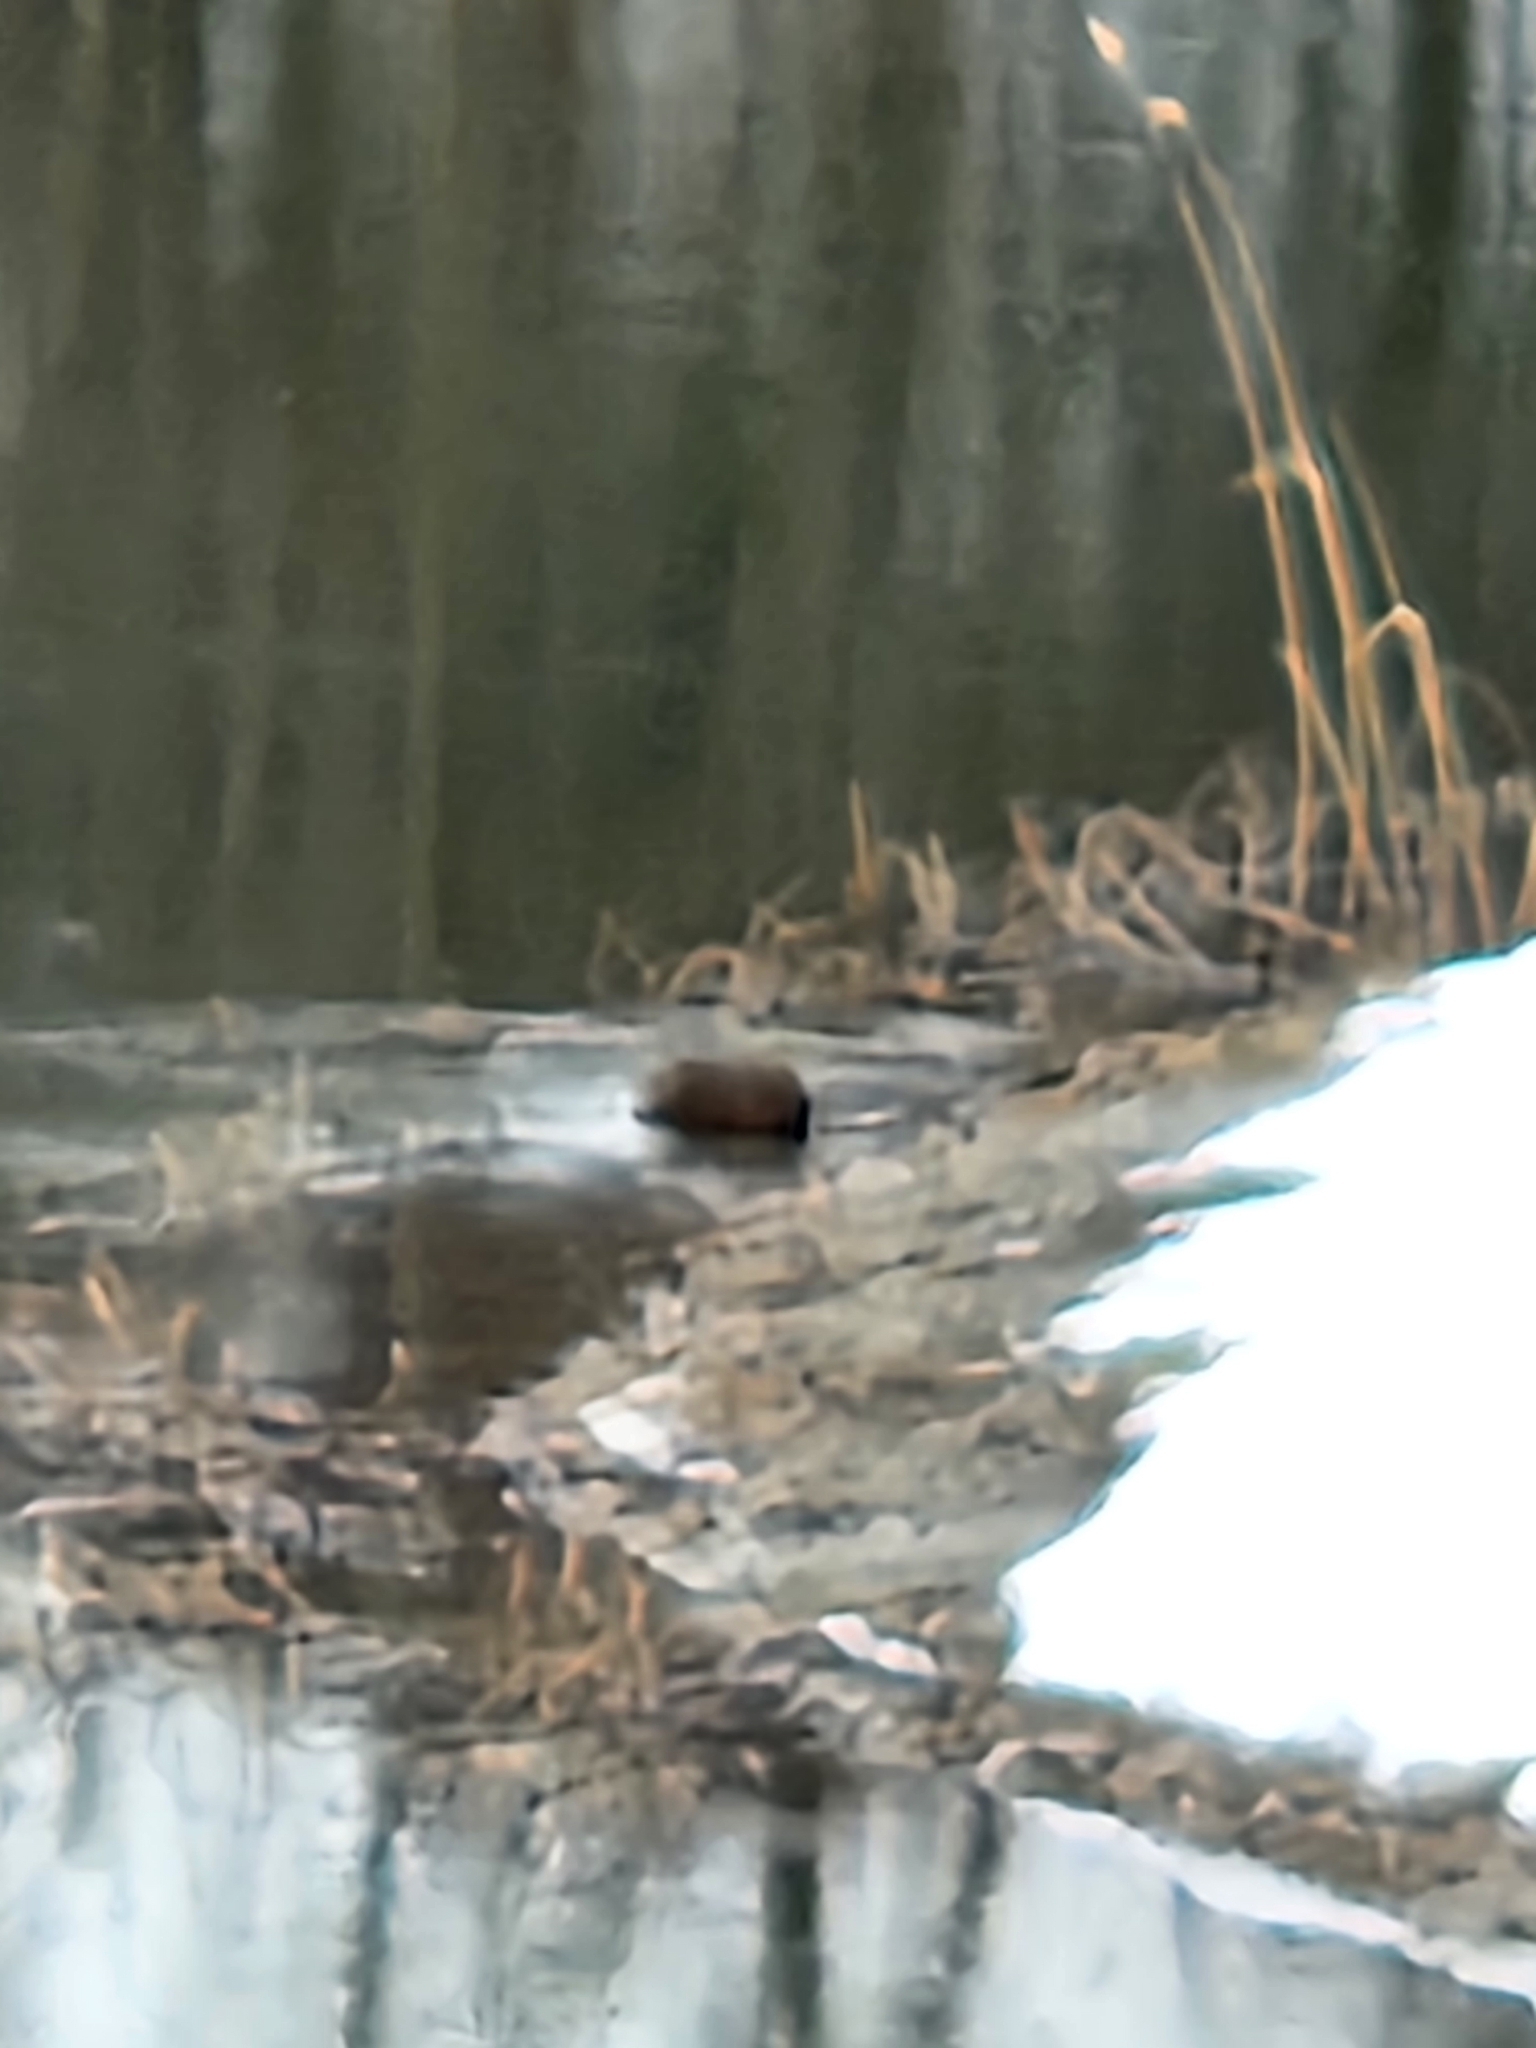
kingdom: Animalia
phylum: Chordata
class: Mammalia
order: Rodentia
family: Castoridae
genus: Castor
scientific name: Castor canadensis
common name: American beaver
